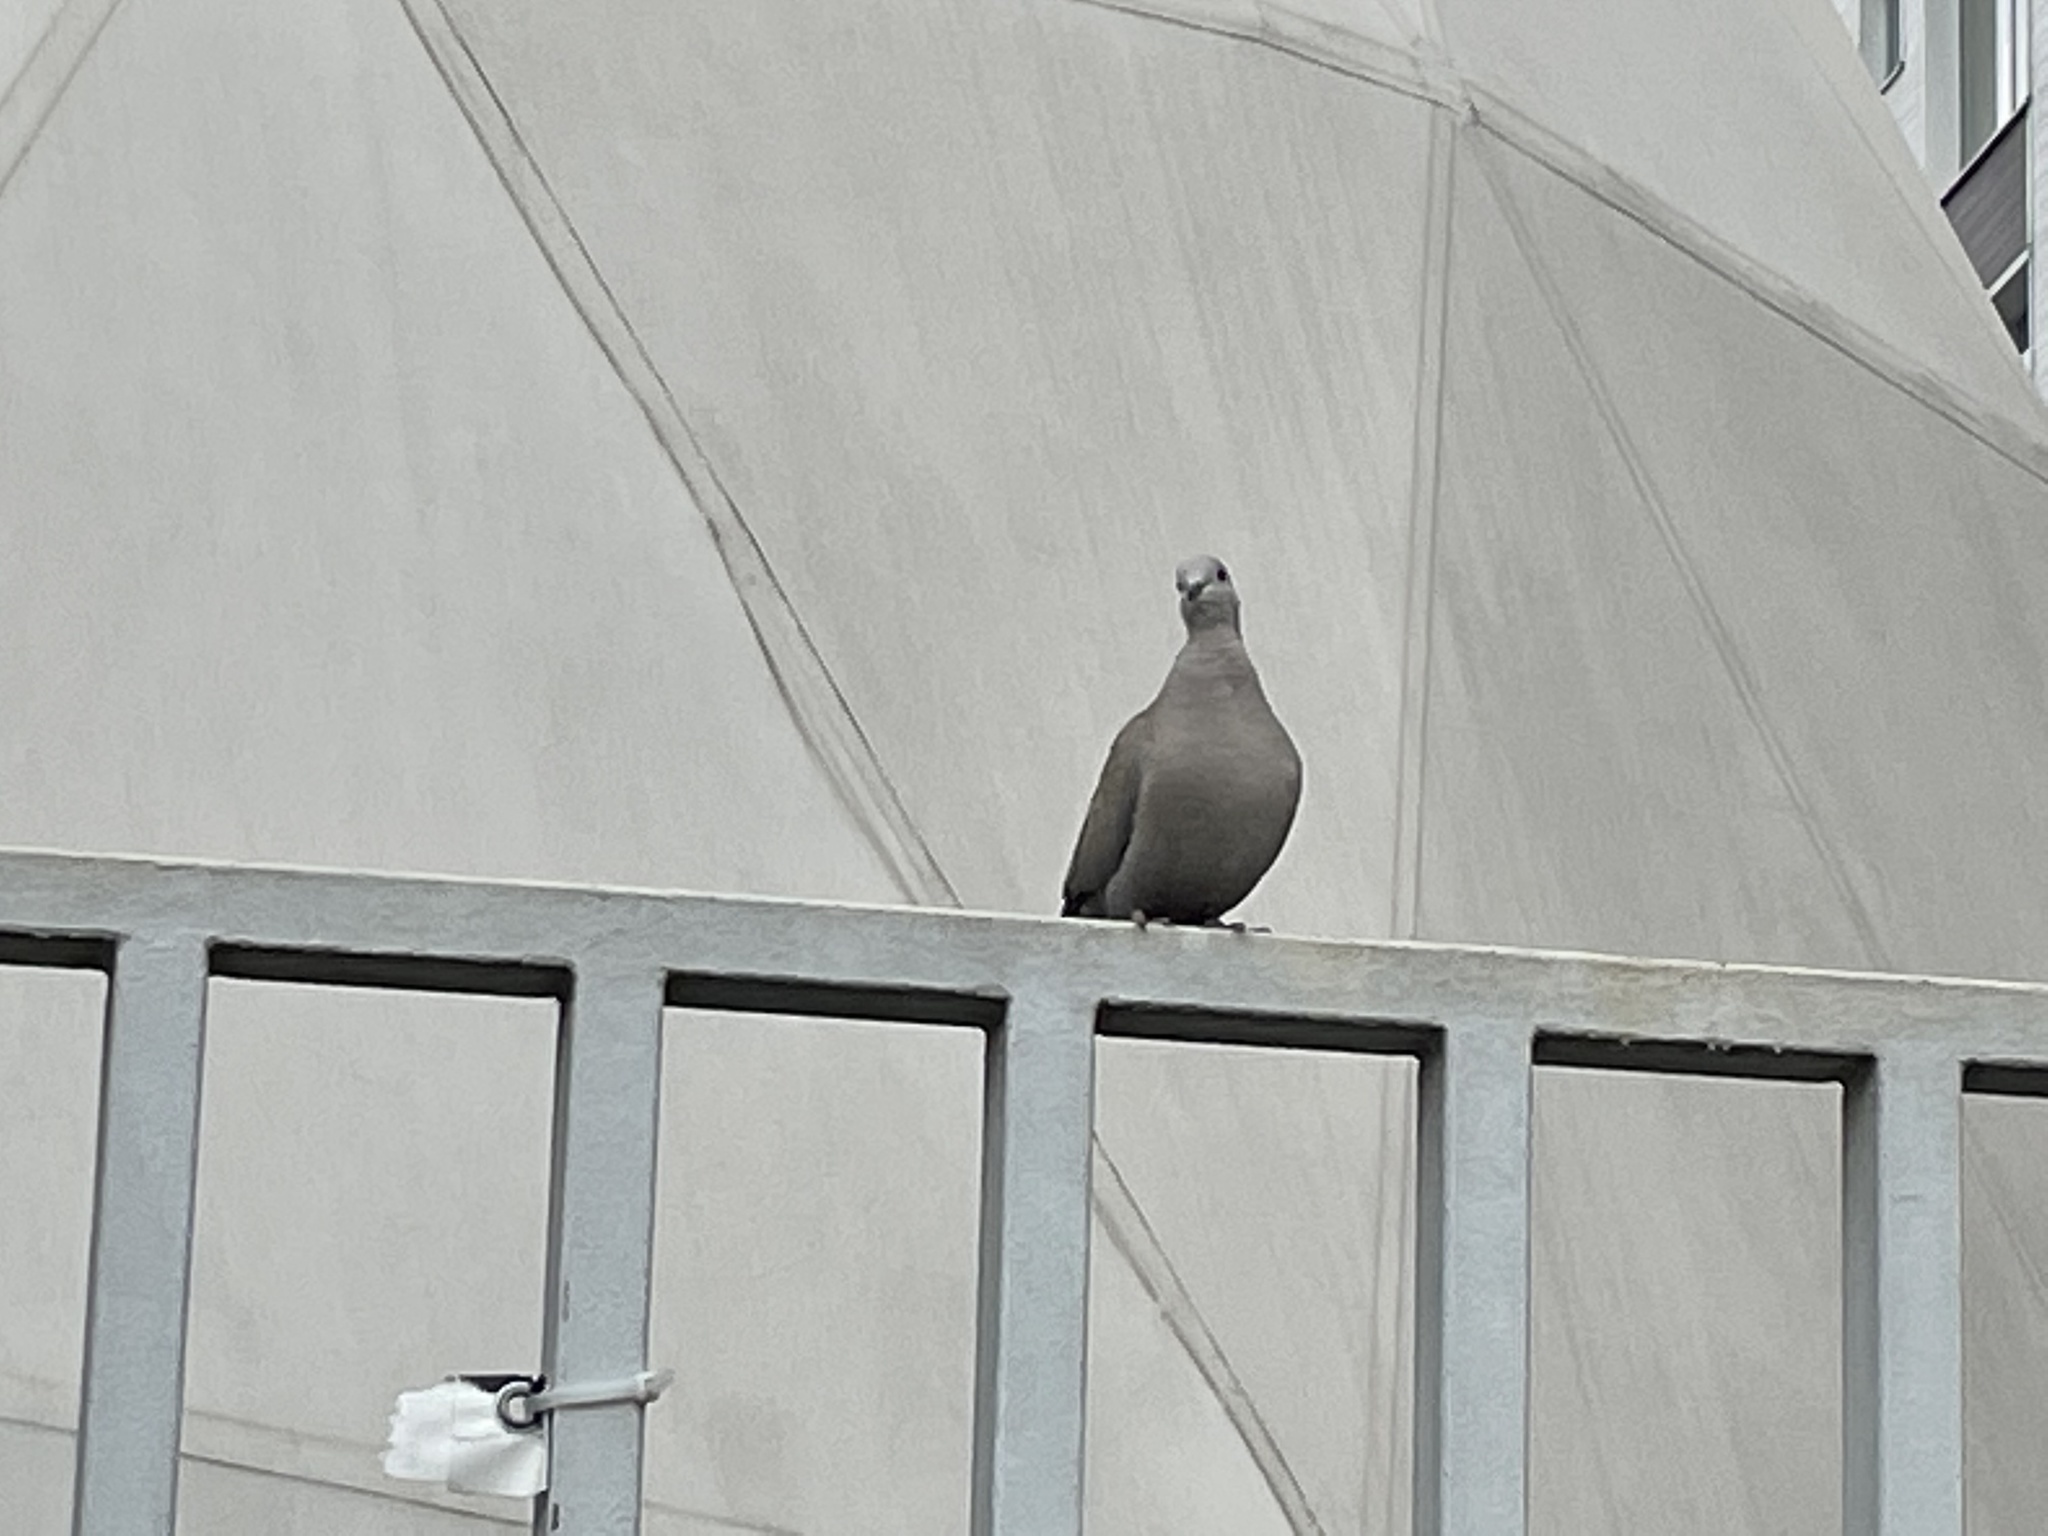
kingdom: Animalia
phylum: Chordata
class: Aves
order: Columbiformes
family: Columbidae
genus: Streptopelia
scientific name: Streptopelia decaocto
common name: Eurasian collared dove
